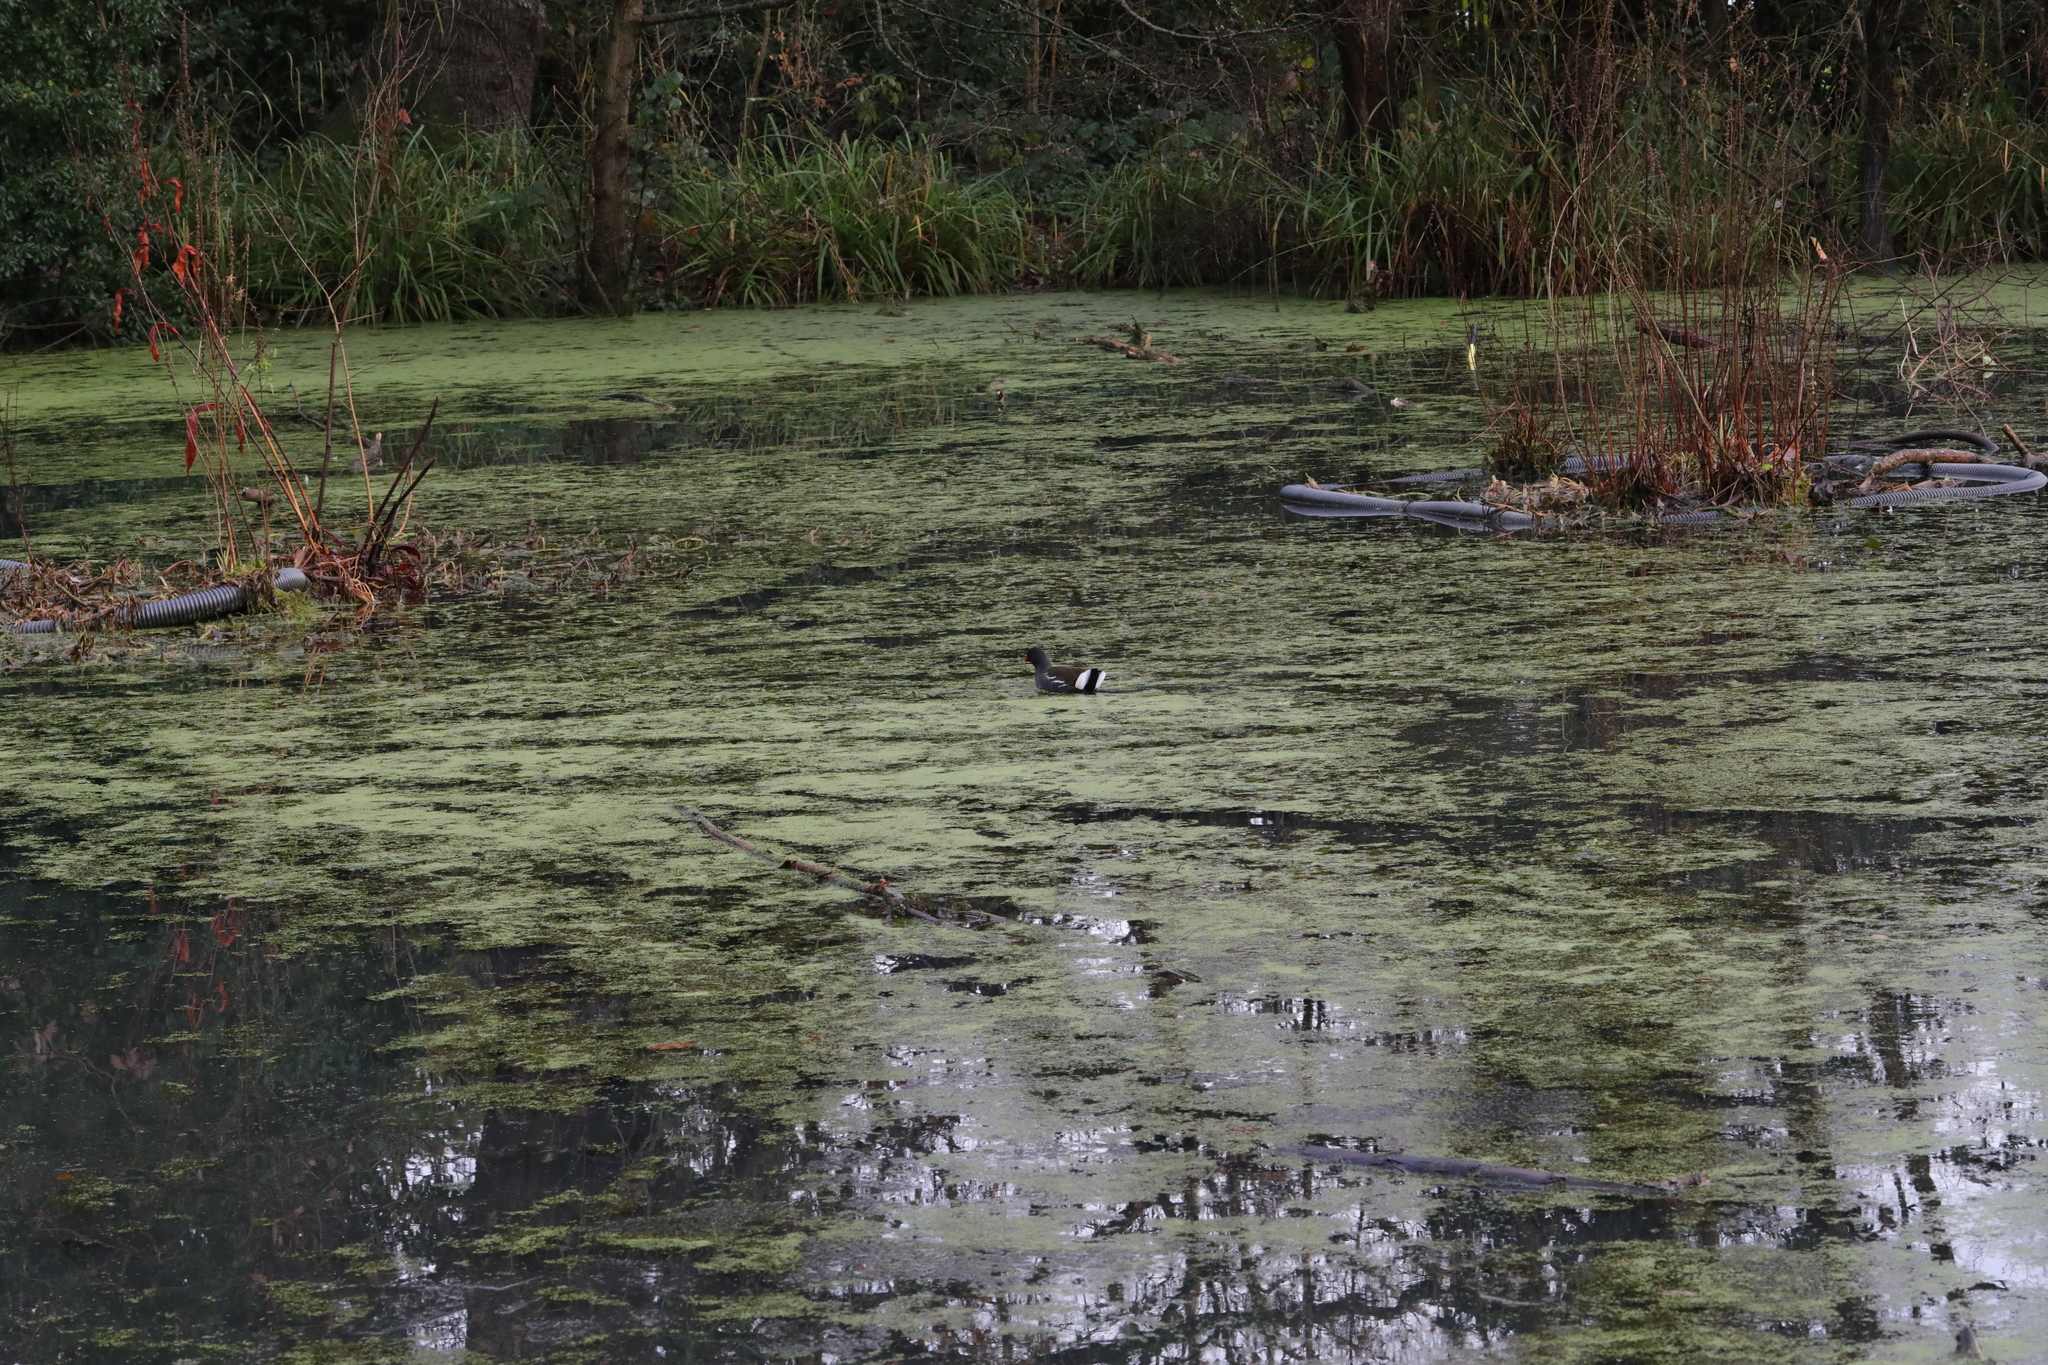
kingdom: Animalia
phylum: Chordata
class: Aves
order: Gruiformes
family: Rallidae
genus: Gallinula
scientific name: Gallinula chloropus
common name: Common moorhen
